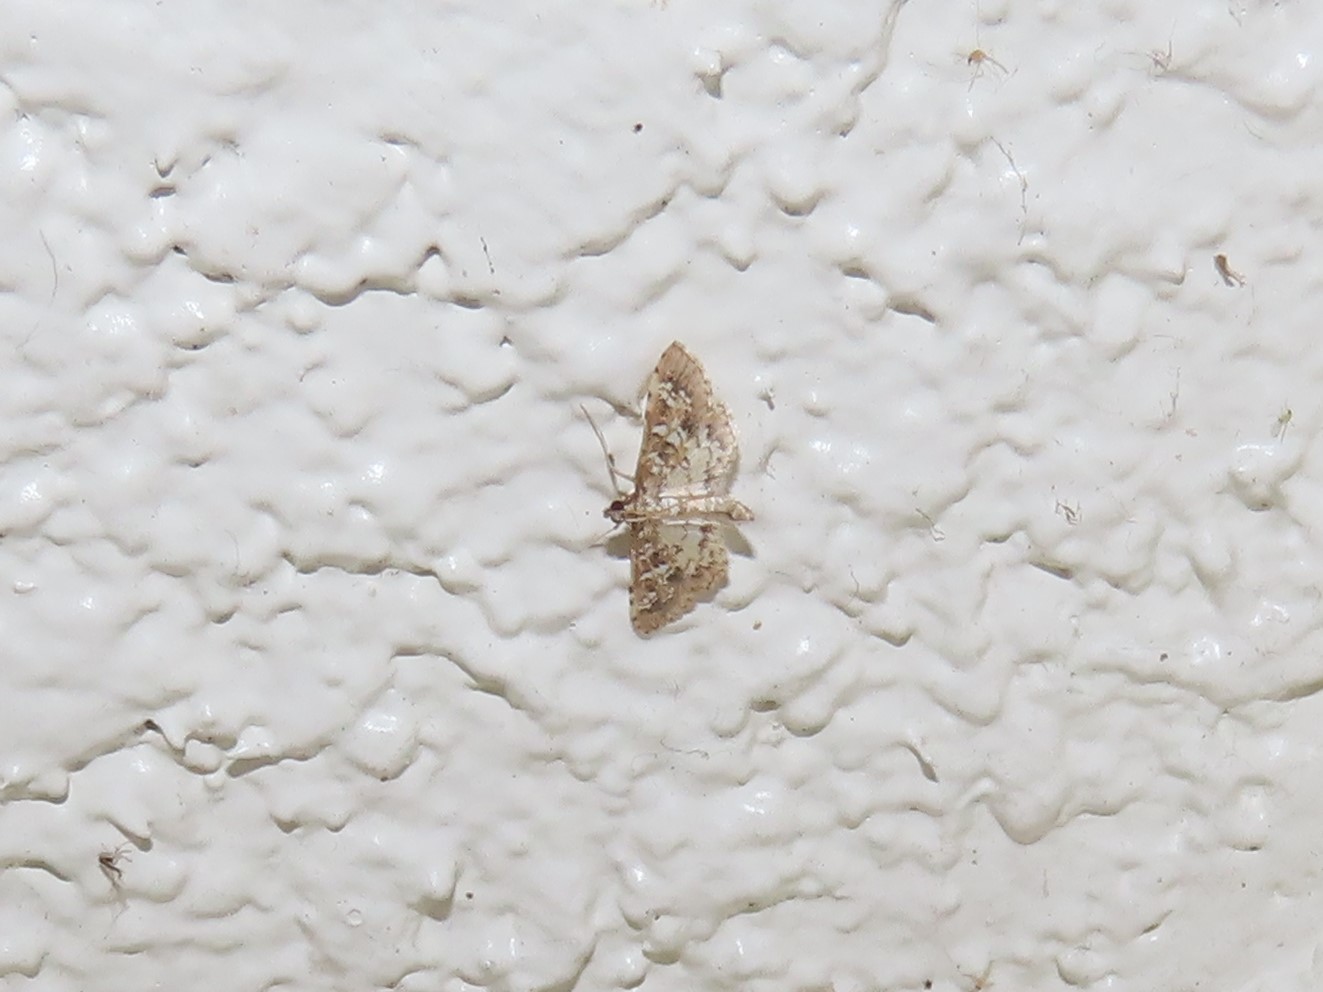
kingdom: Animalia
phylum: Arthropoda
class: Insecta
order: Lepidoptera
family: Crambidae
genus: Samea
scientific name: Samea multiplicalis
